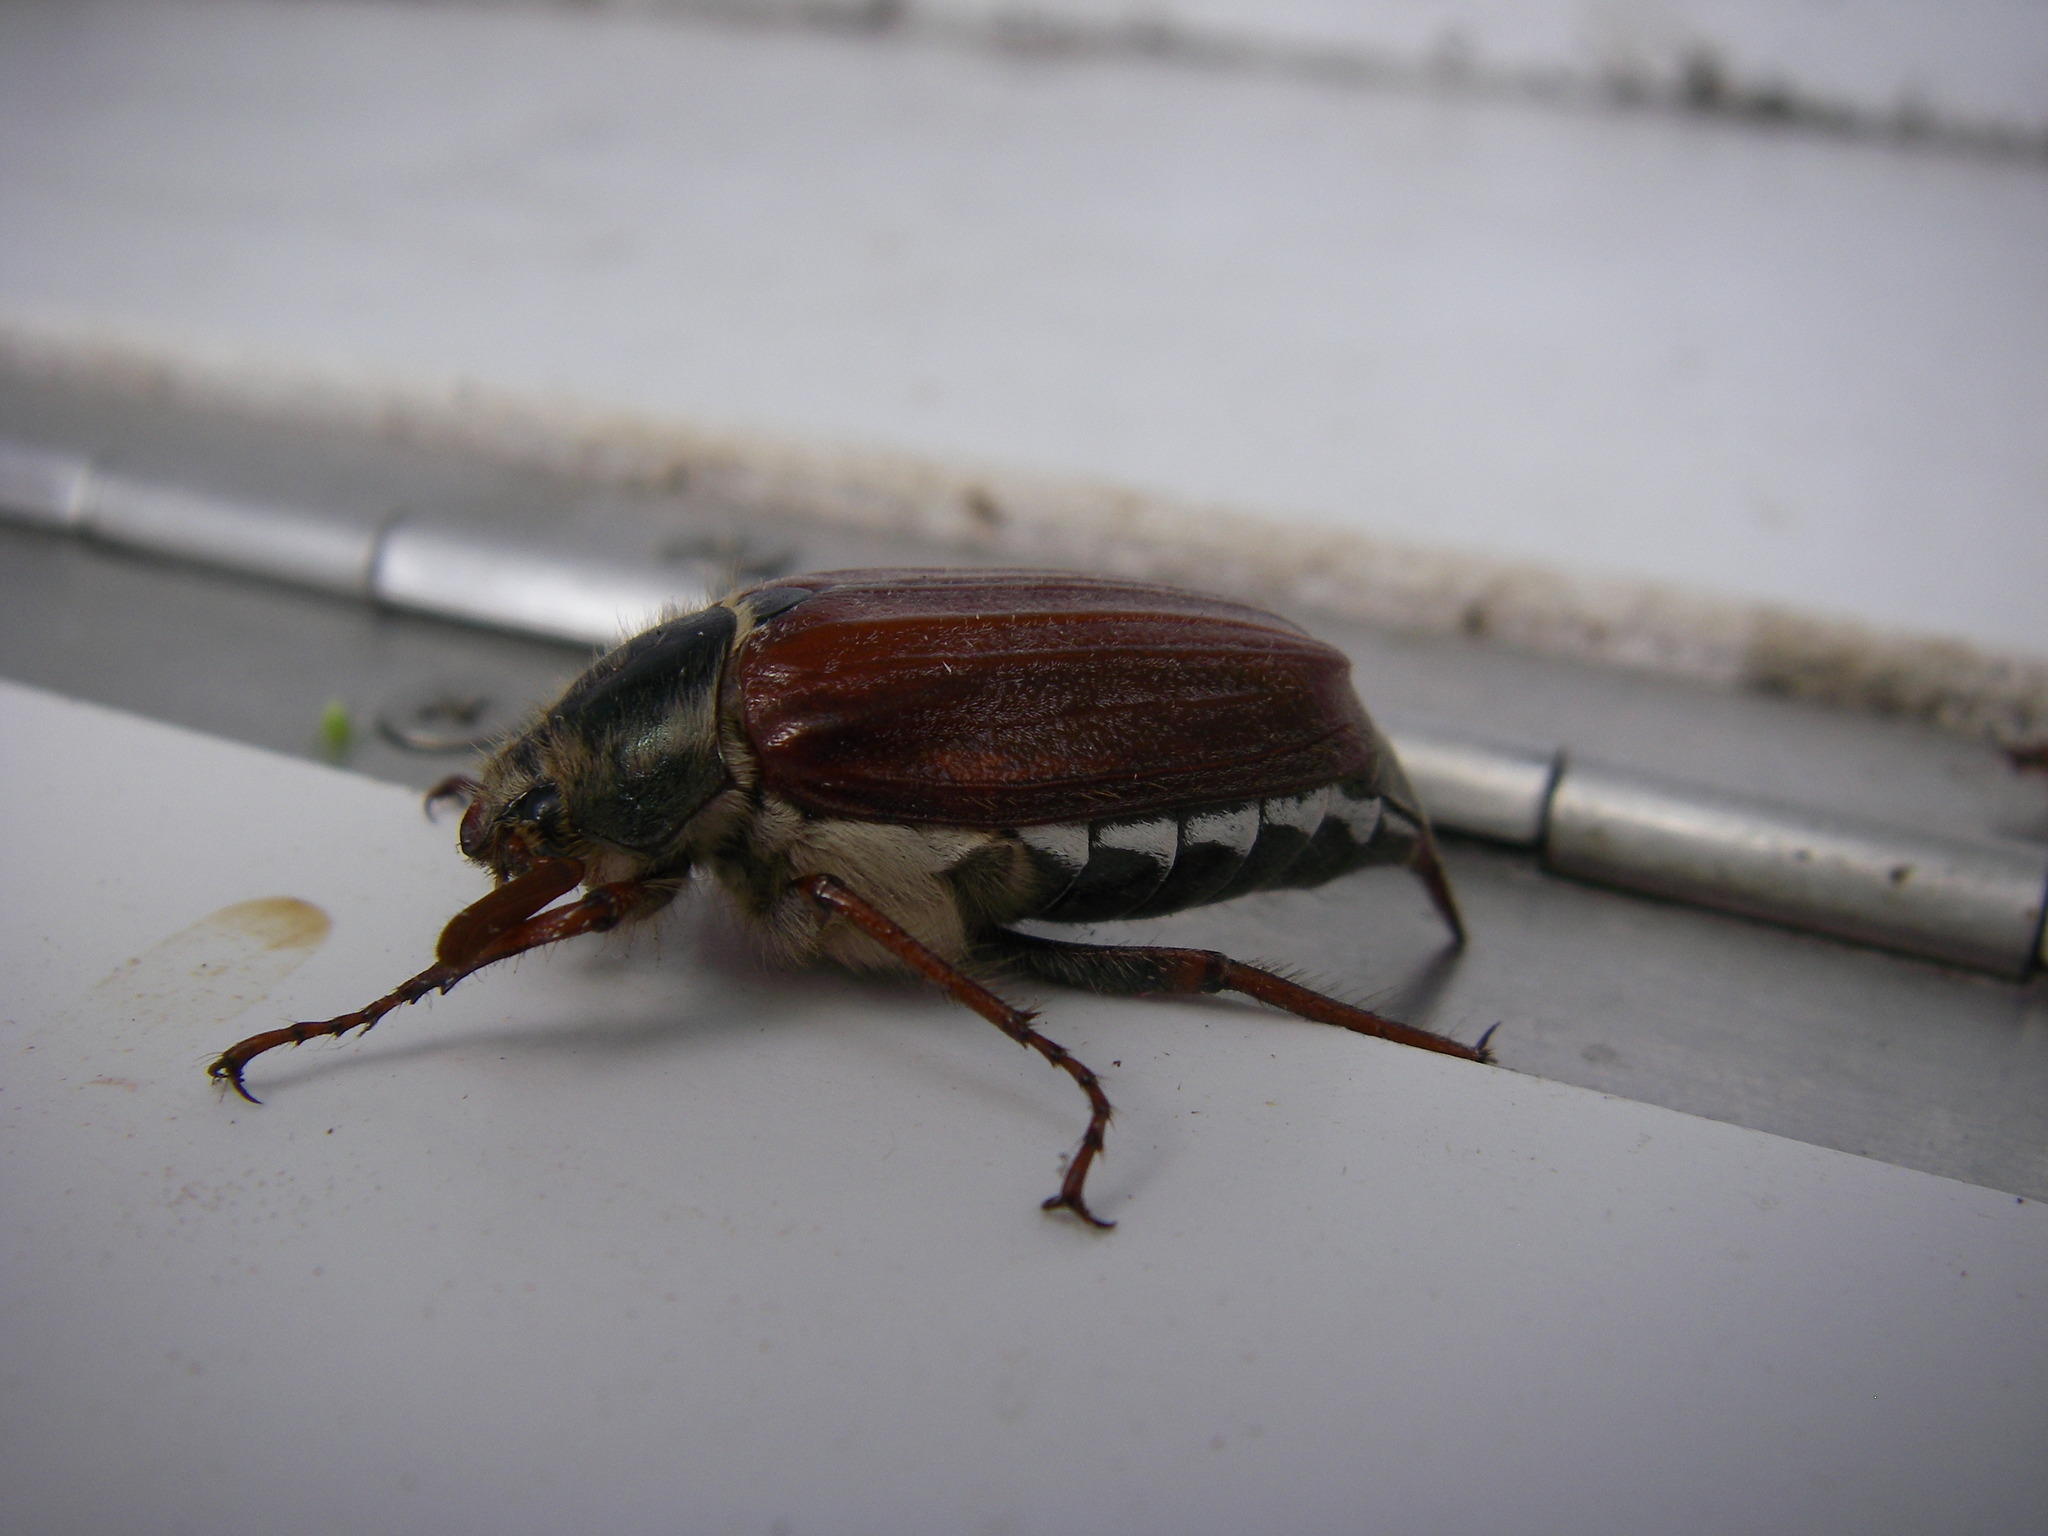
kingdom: Animalia
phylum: Arthropoda
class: Insecta
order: Coleoptera
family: Scarabaeidae
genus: Melolontha
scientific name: Melolontha melolontha
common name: Cockchafer maybeetle
